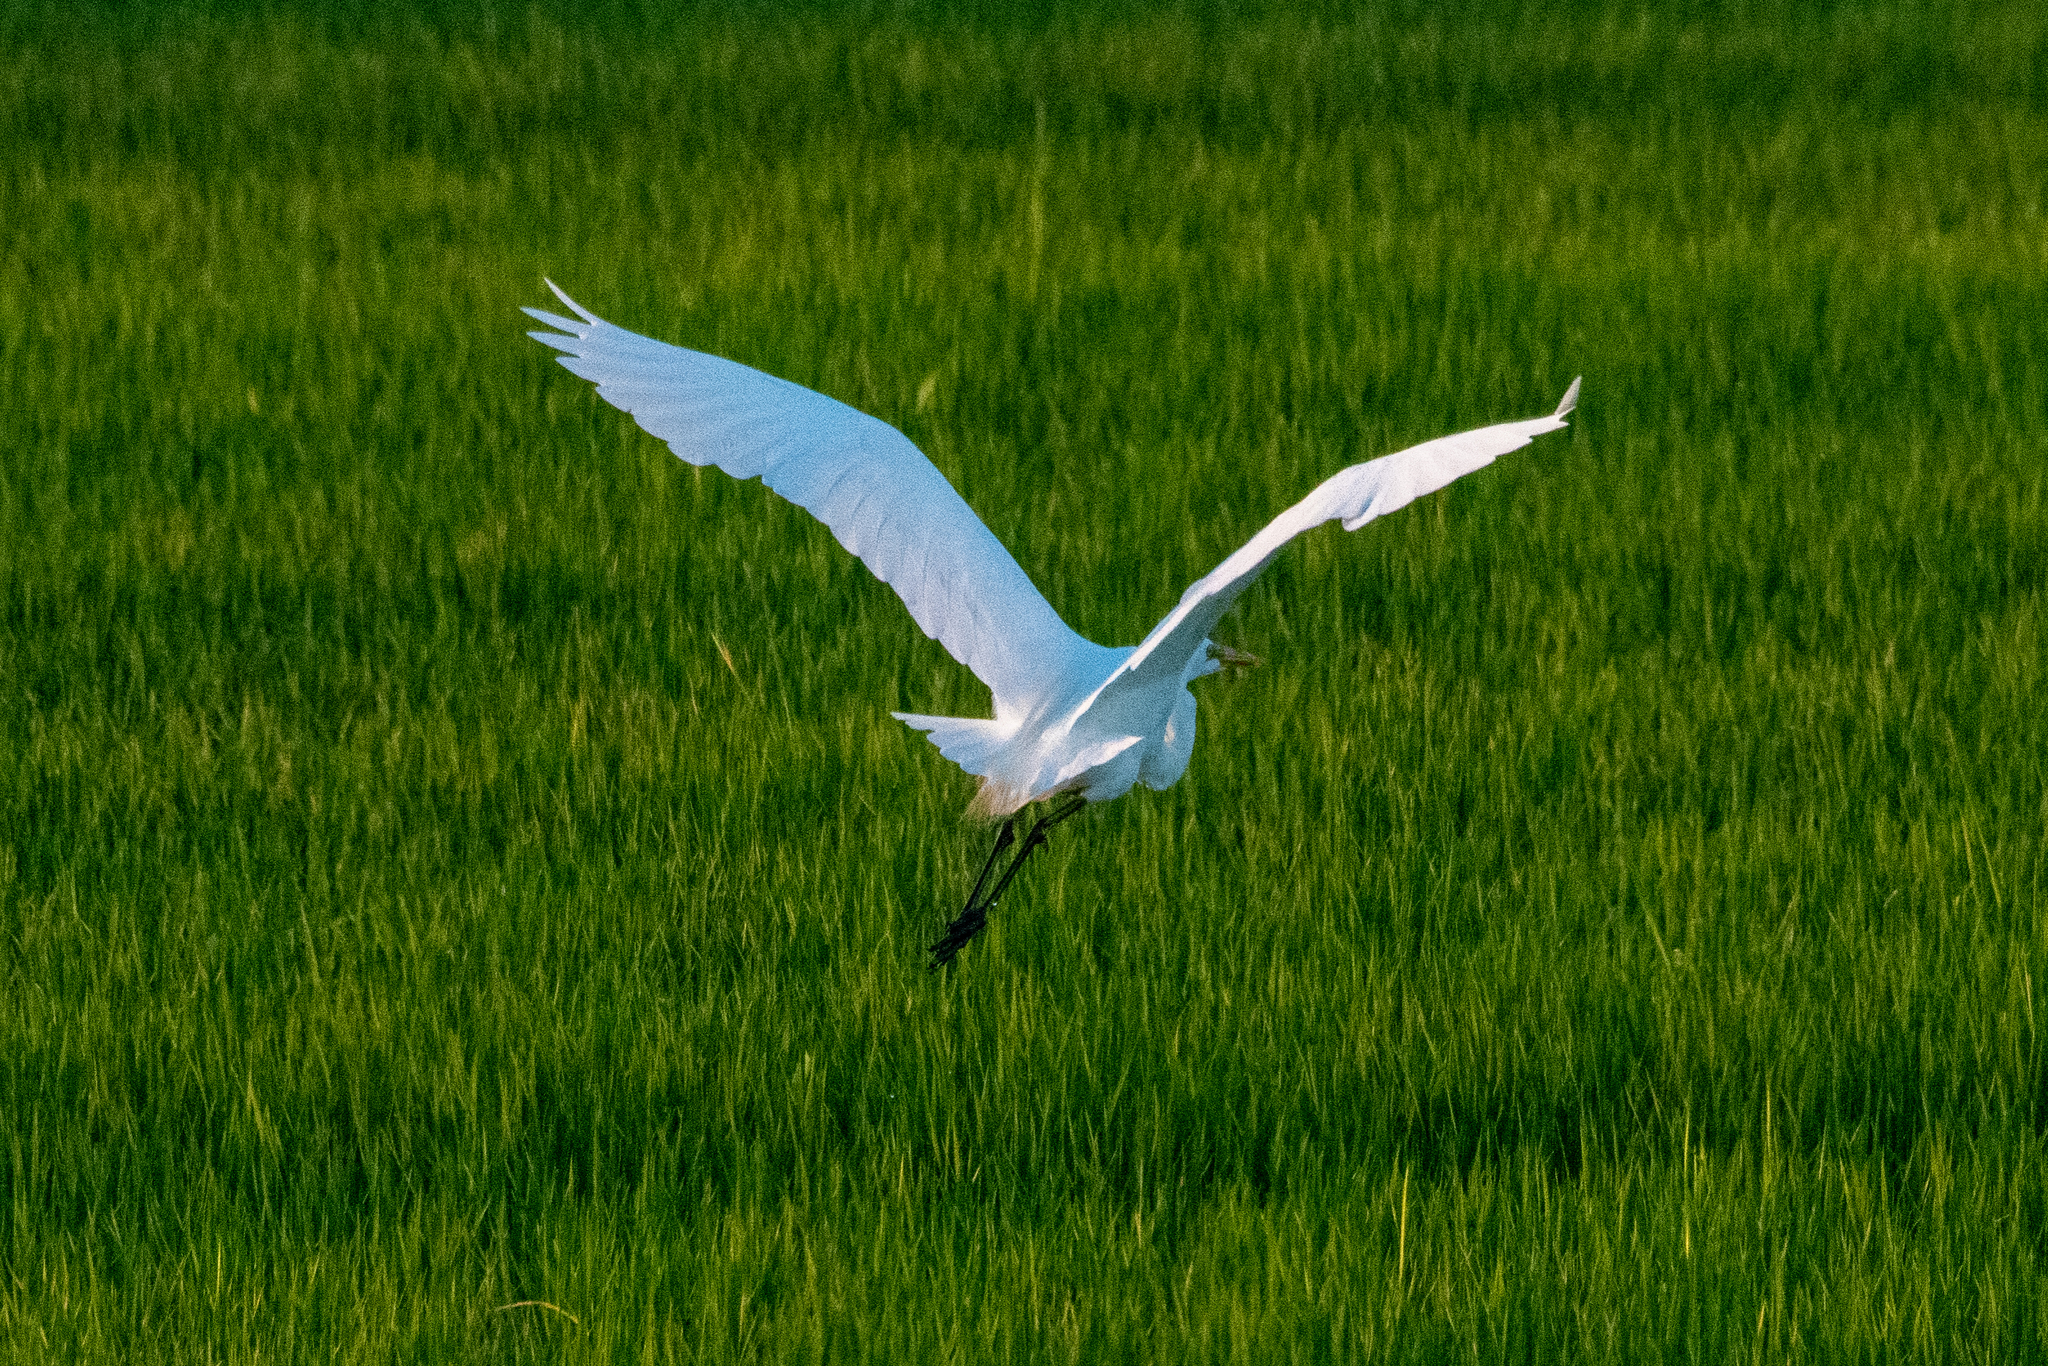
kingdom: Animalia
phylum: Chordata
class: Aves
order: Pelecaniformes
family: Ardeidae
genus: Ardea
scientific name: Ardea alba
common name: Great egret
